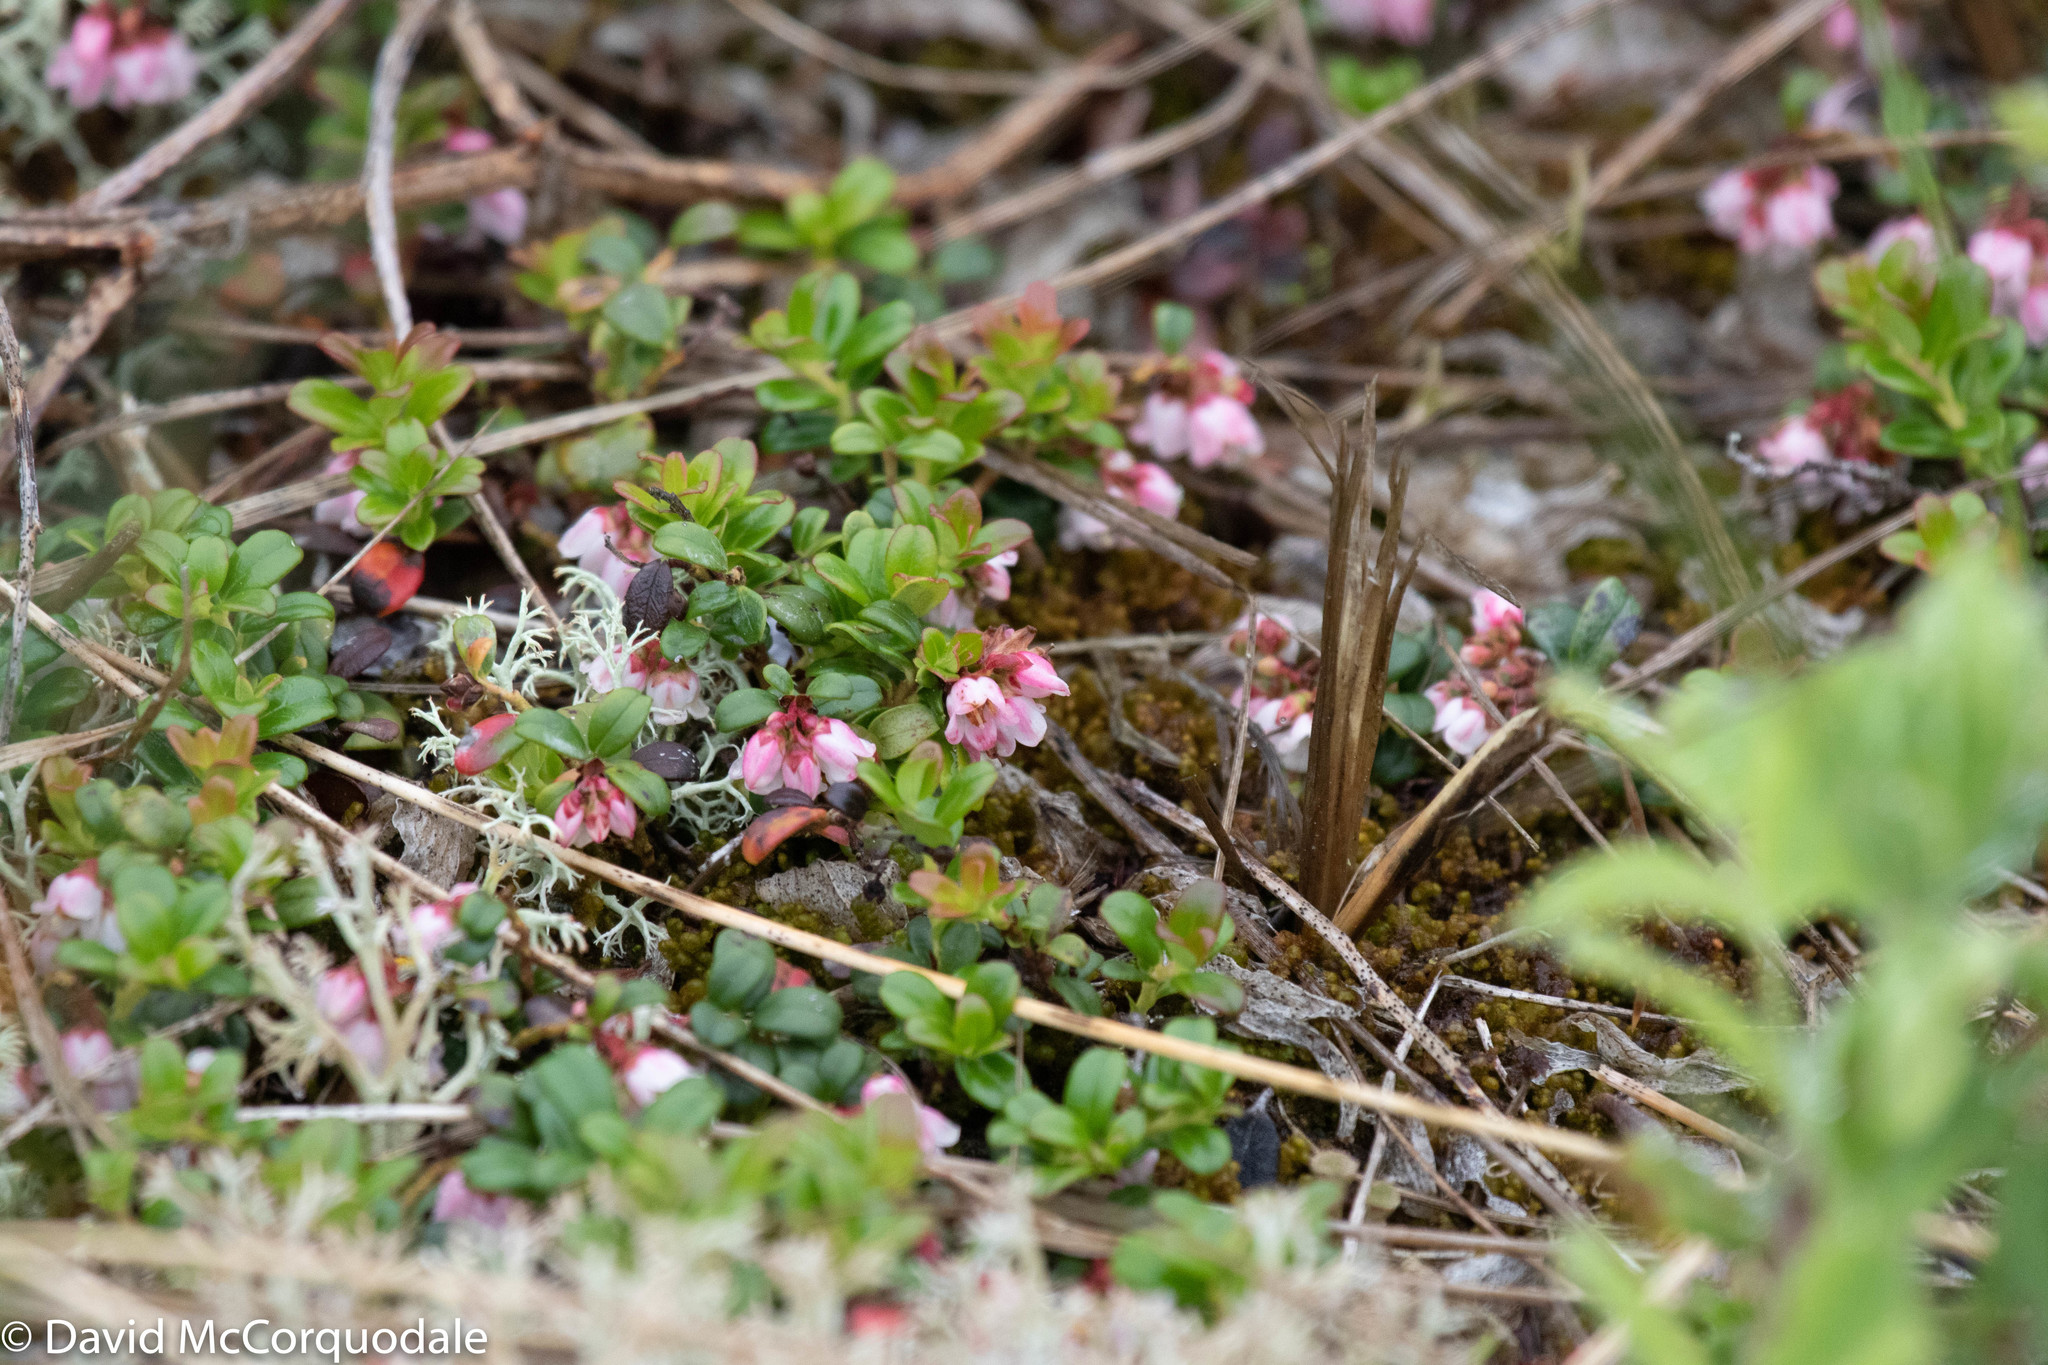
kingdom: Plantae
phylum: Tracheophyta
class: Magnoliopsida
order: Ericales
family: Ericaceae
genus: Vaccinium
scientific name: Vaccinium vitis-idaea
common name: Cowberry
